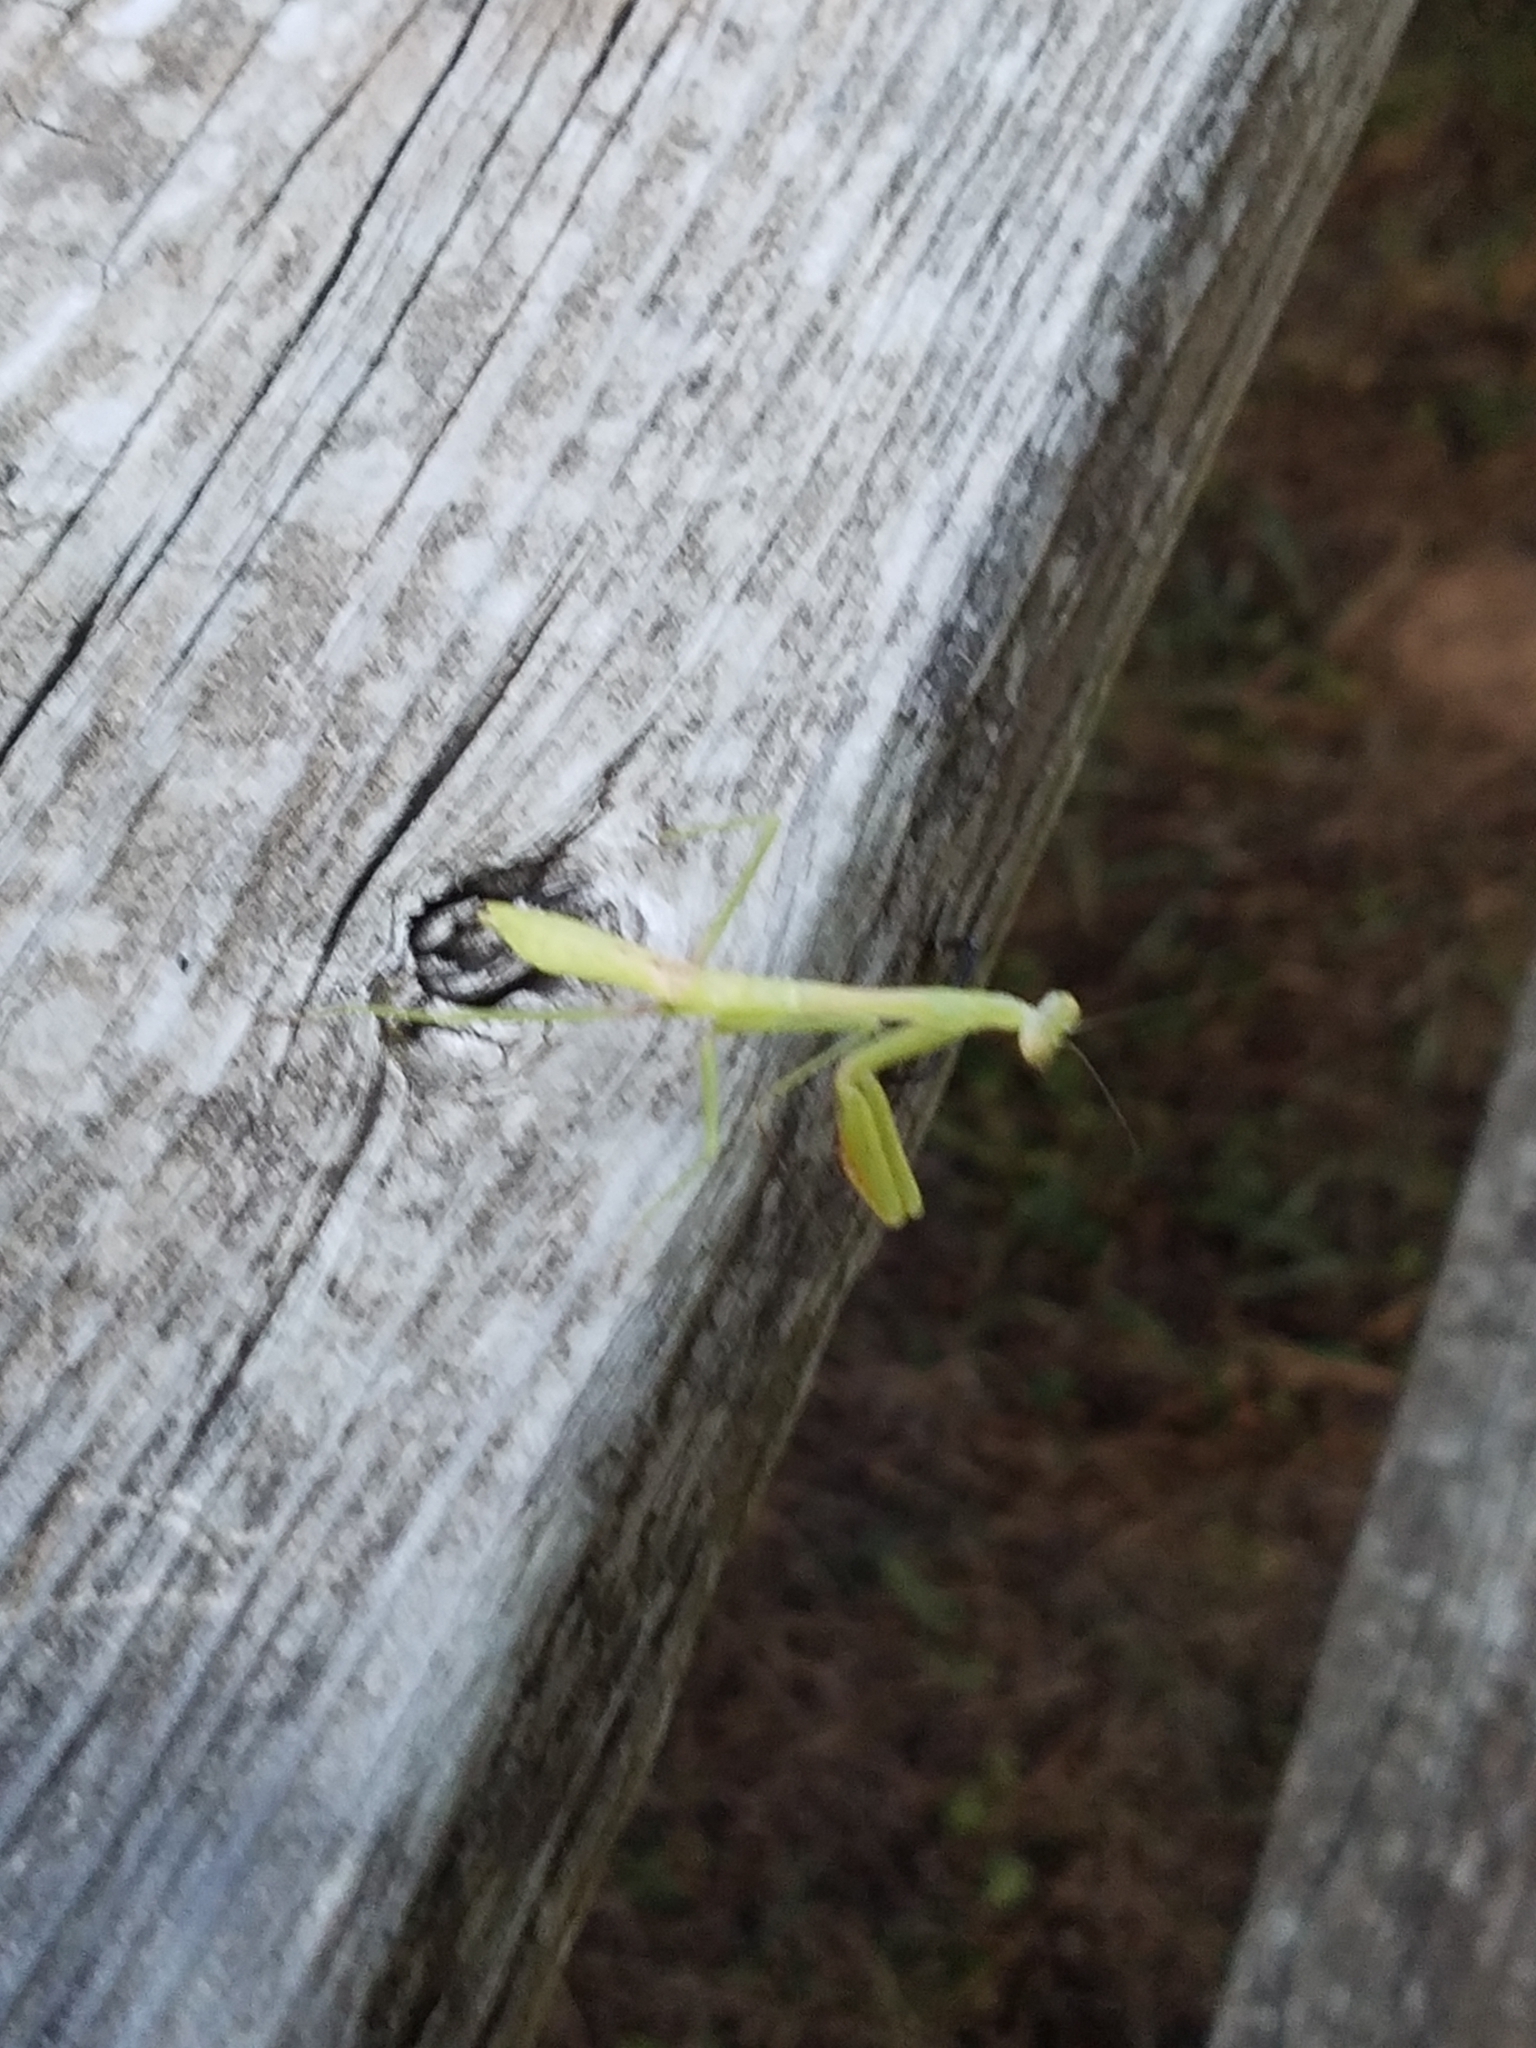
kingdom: Animalia
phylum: Arthropoda
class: Insecta
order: Mantodea
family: Mantidae
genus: Stagmomantis
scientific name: Stagmomantis carolina
